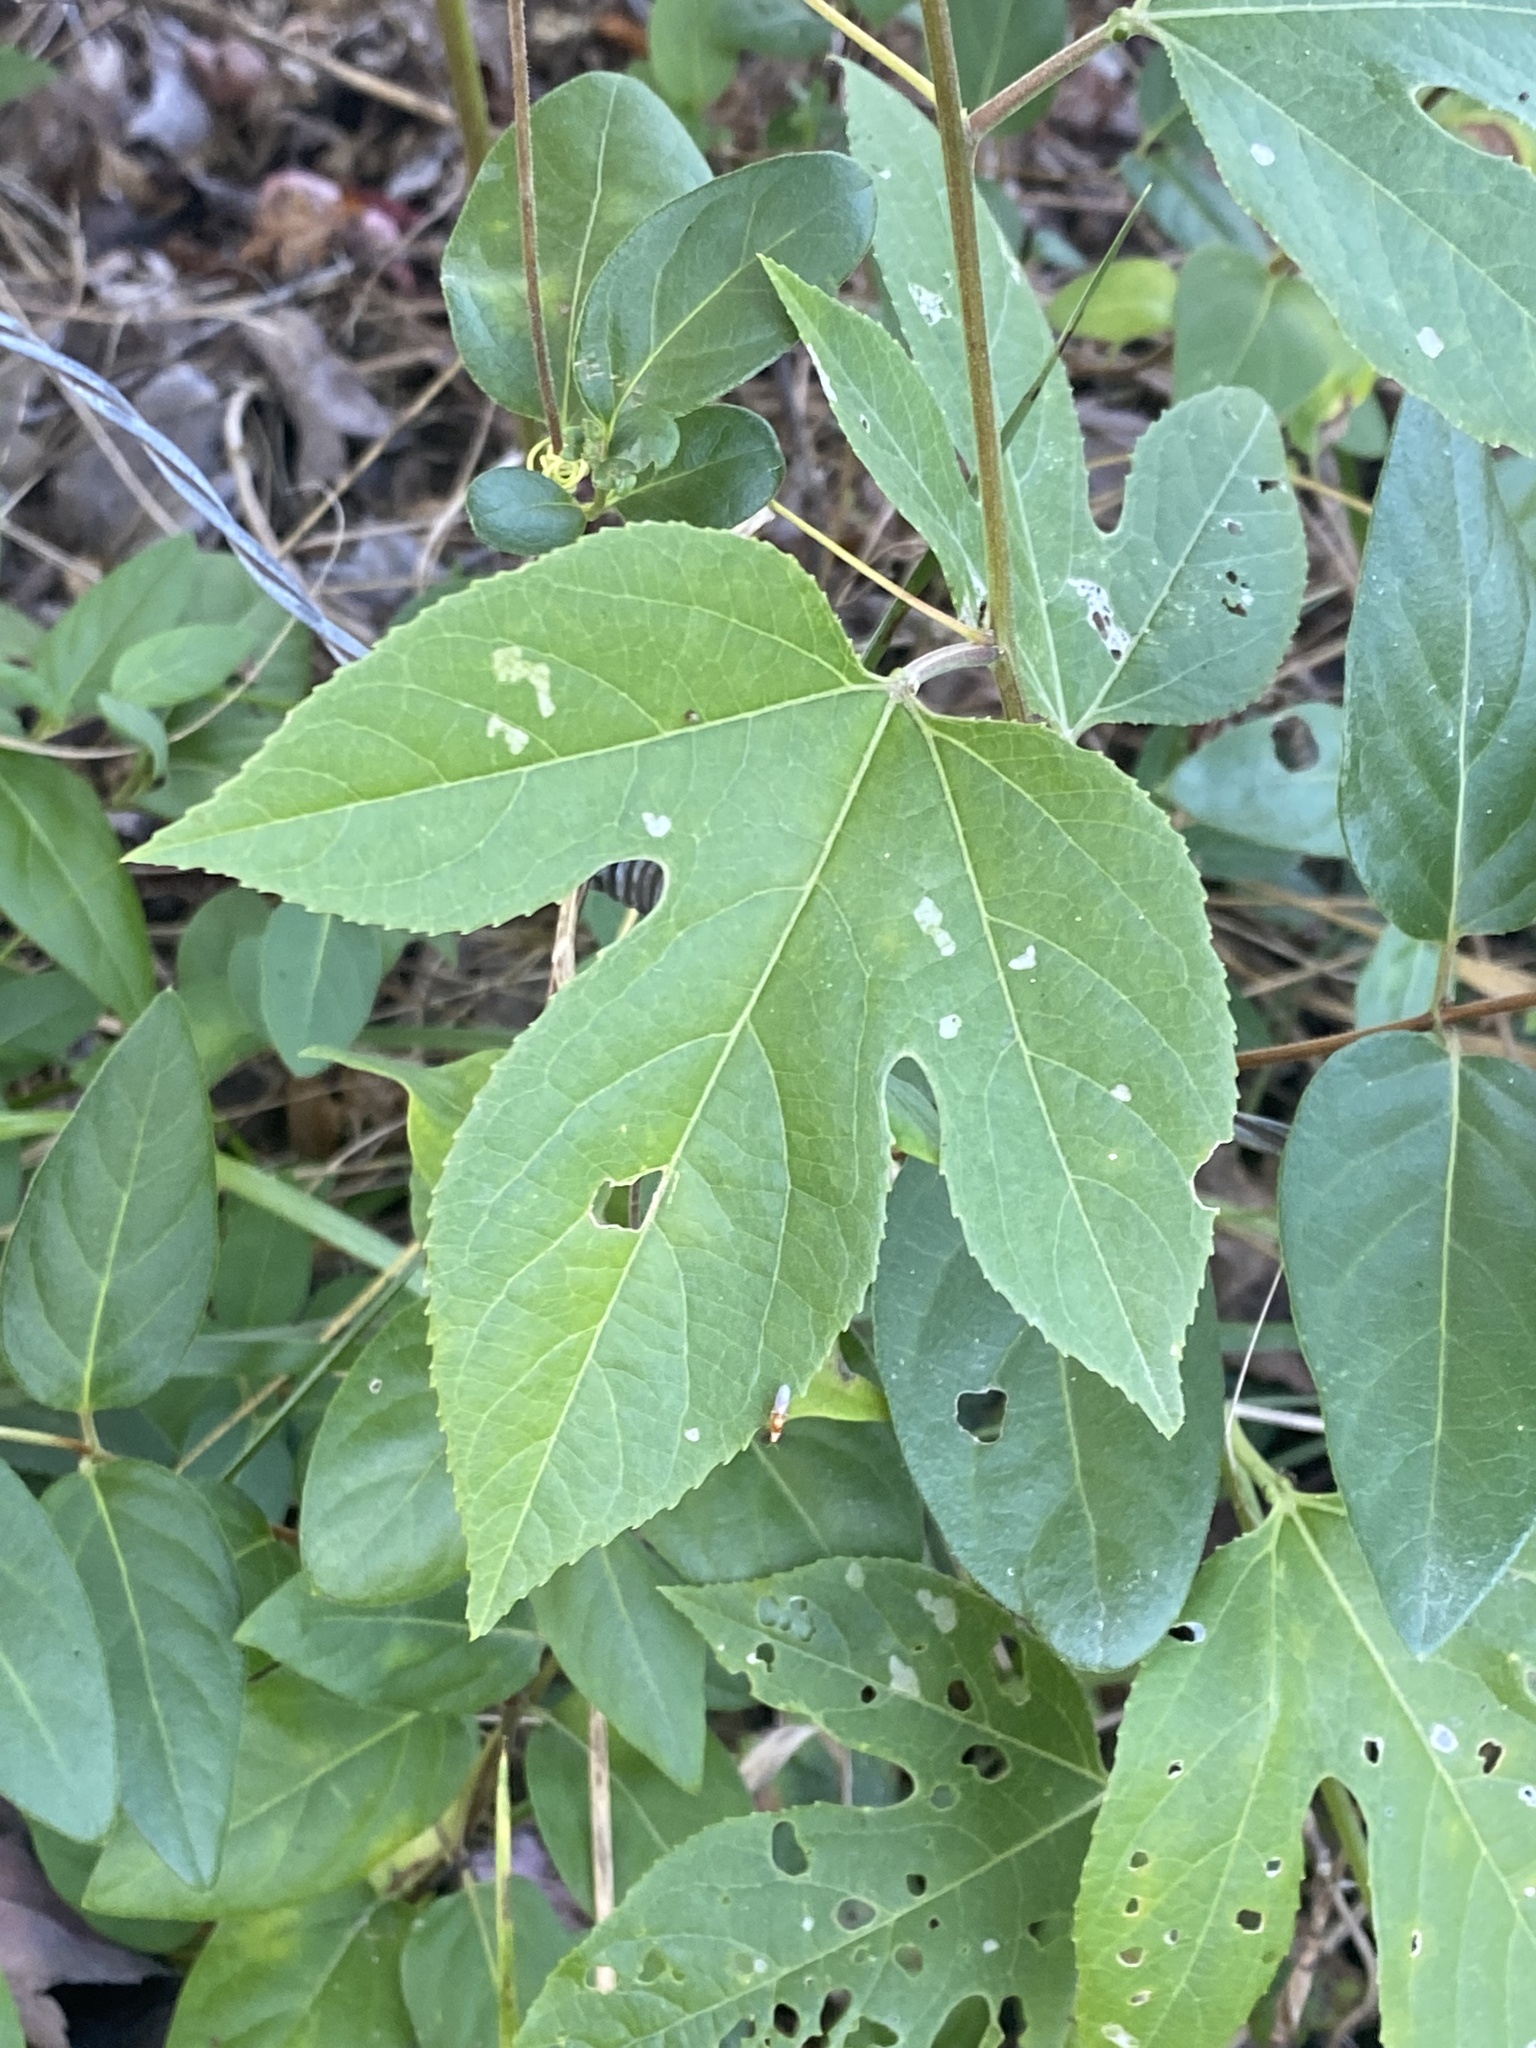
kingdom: Plantae
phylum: Tracheophyta
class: Magnoliopsida
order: Malpighiales
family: Passifloraceae
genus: Passiflora
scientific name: Passiflora incarnata
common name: Apricot-vine
